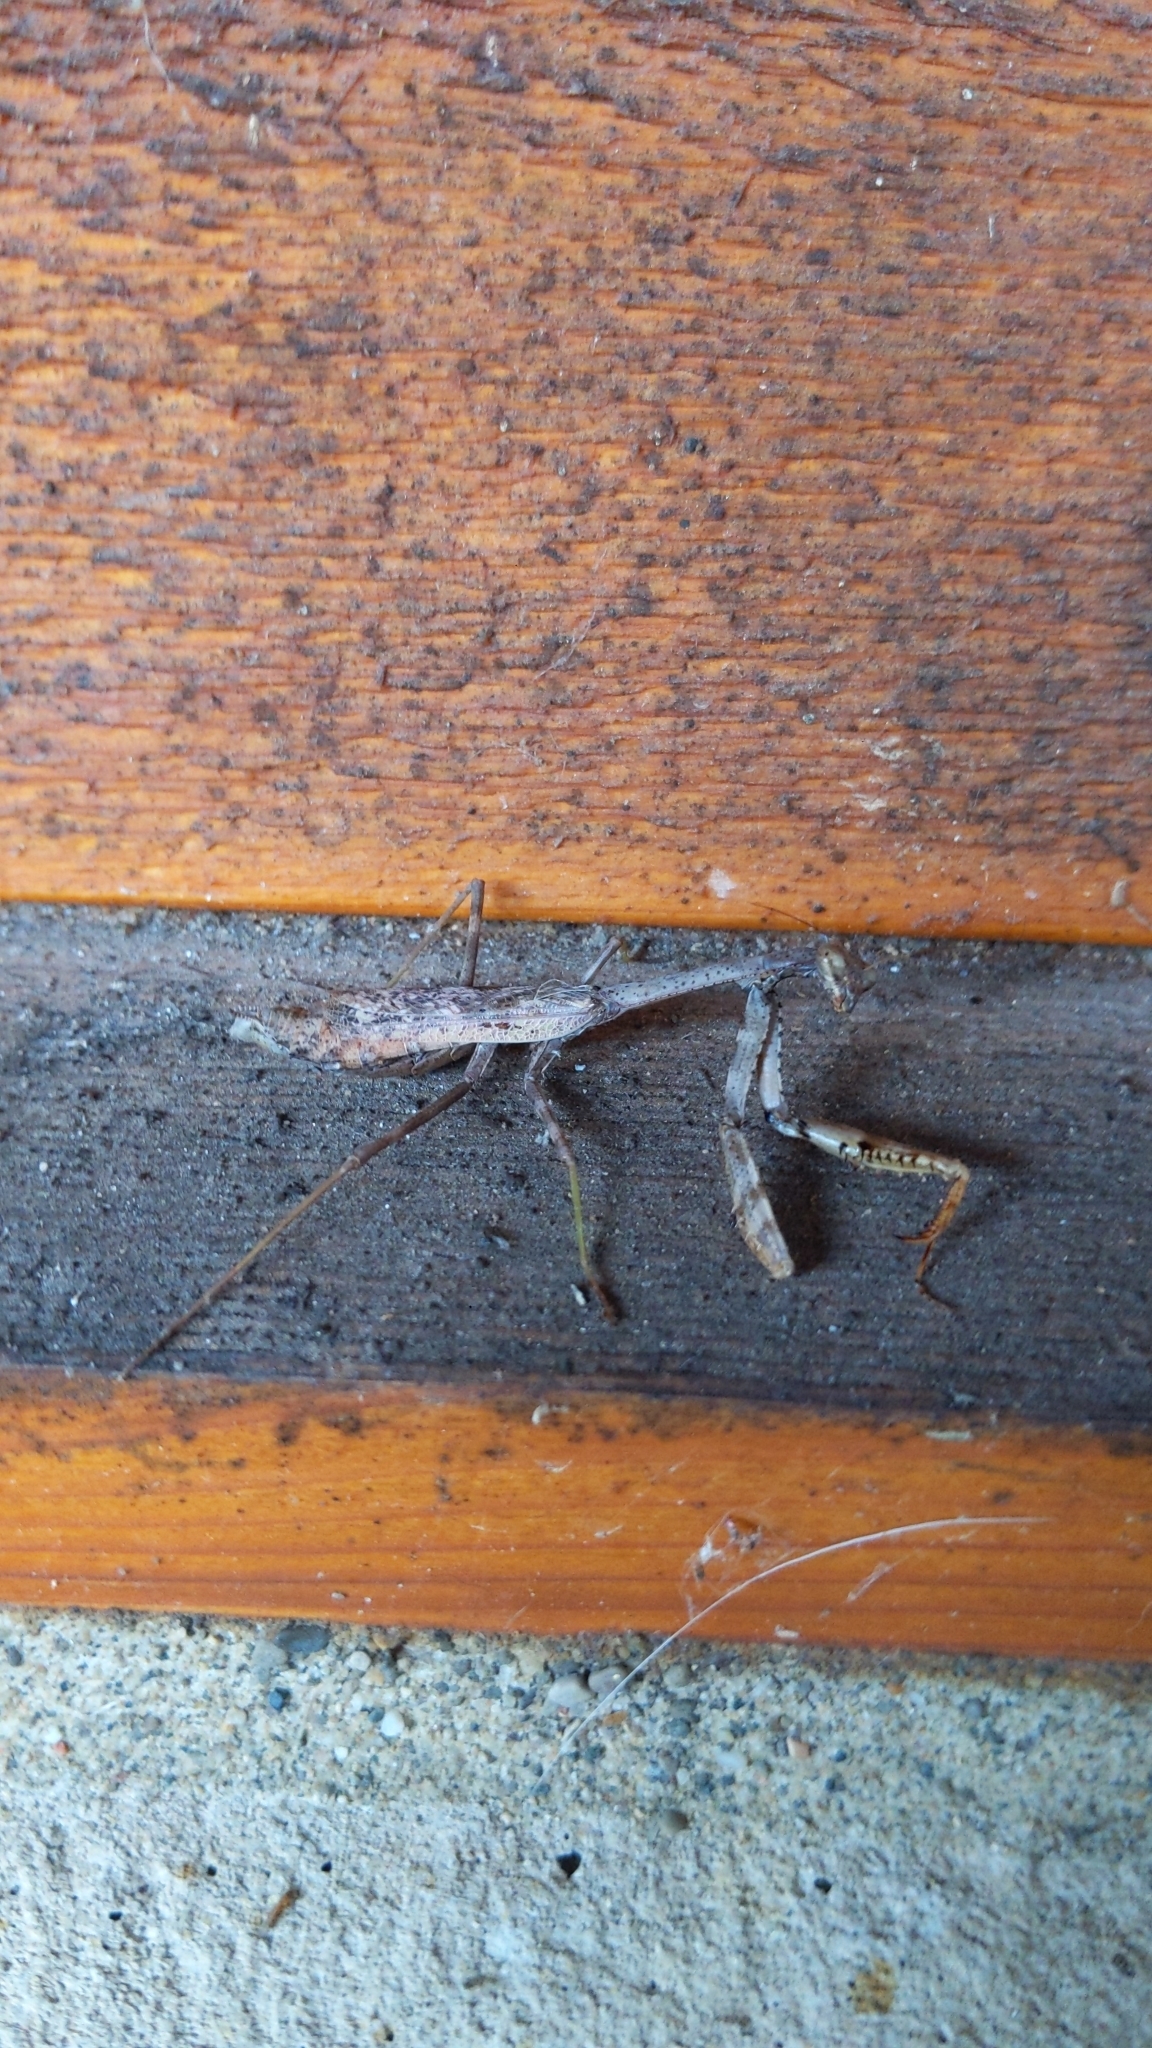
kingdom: Animalia
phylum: Arthropoda
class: Insecta
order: Mantodea
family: Mantidae
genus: Stagmomantis
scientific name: Stagmomantis carolina
